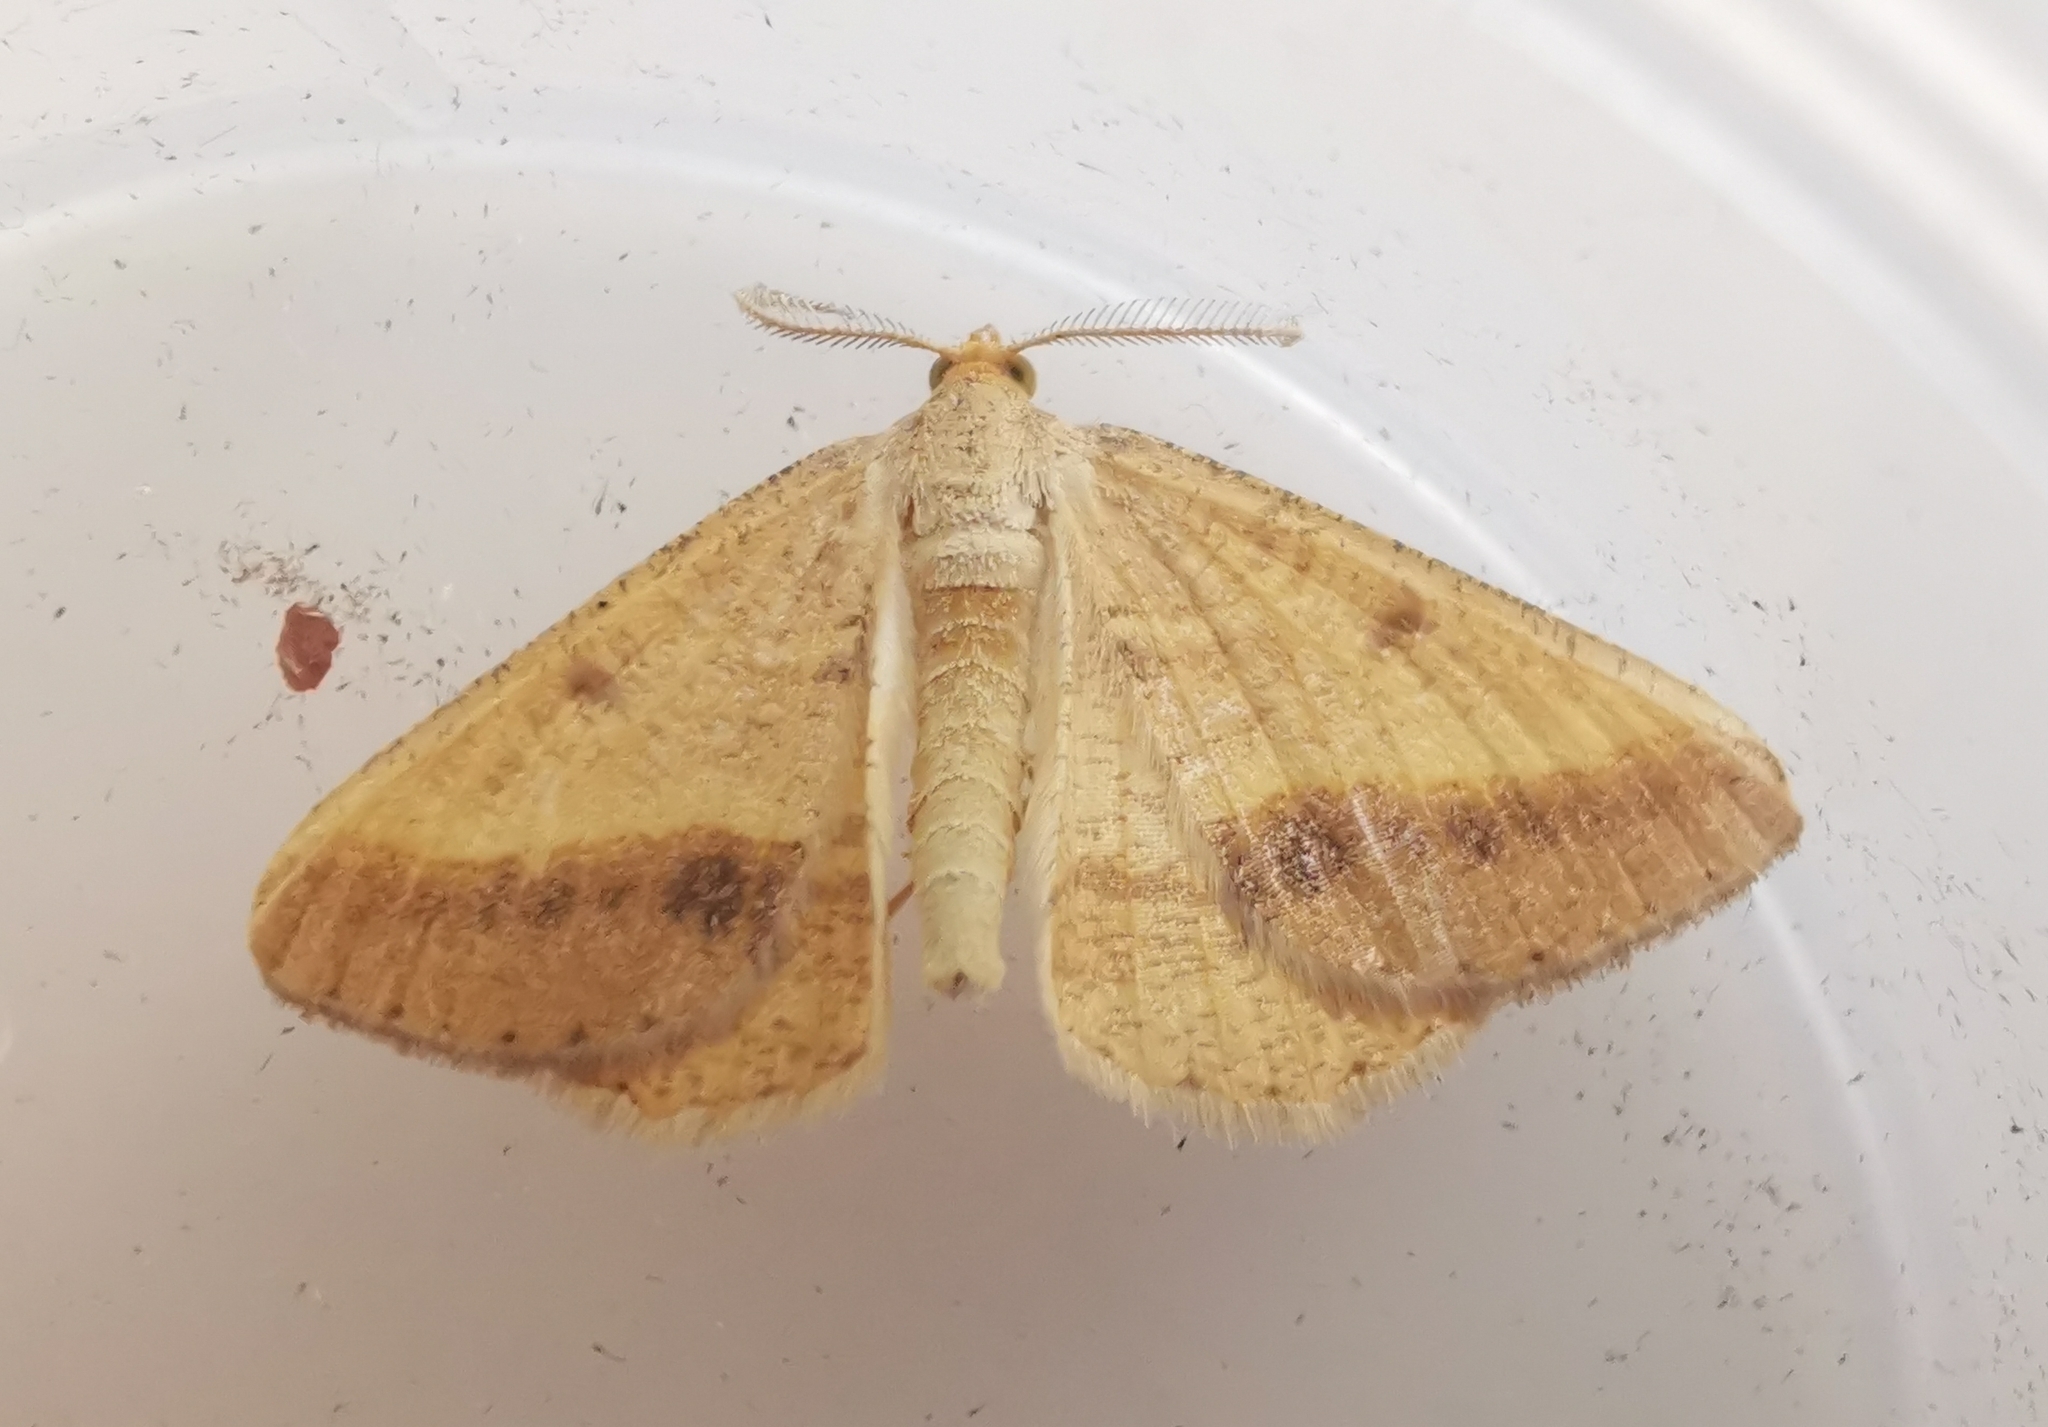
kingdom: Animalia
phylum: Arthropoda
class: Insecta
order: Lepidoptera
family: Geometridae
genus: Tephrina
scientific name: Tephrina arenacearia
